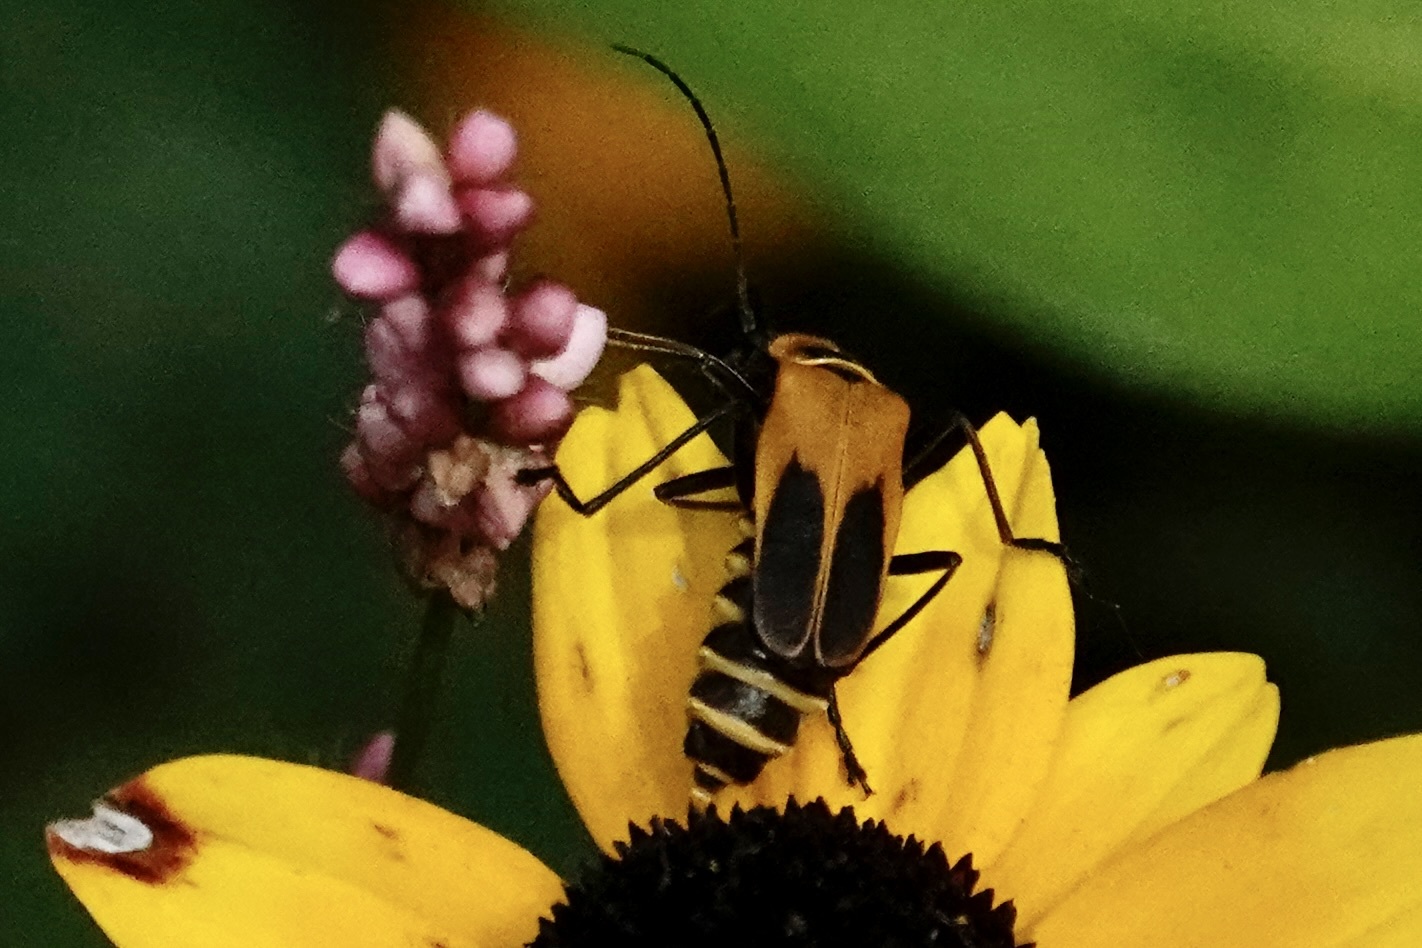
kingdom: Animalia
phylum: Arthropoda
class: Insecta
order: Coleoptera
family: Cantharidae
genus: Chauliognathus
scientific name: Chauliognathus pensylvanicus
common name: Goldenrod soldier beetle
